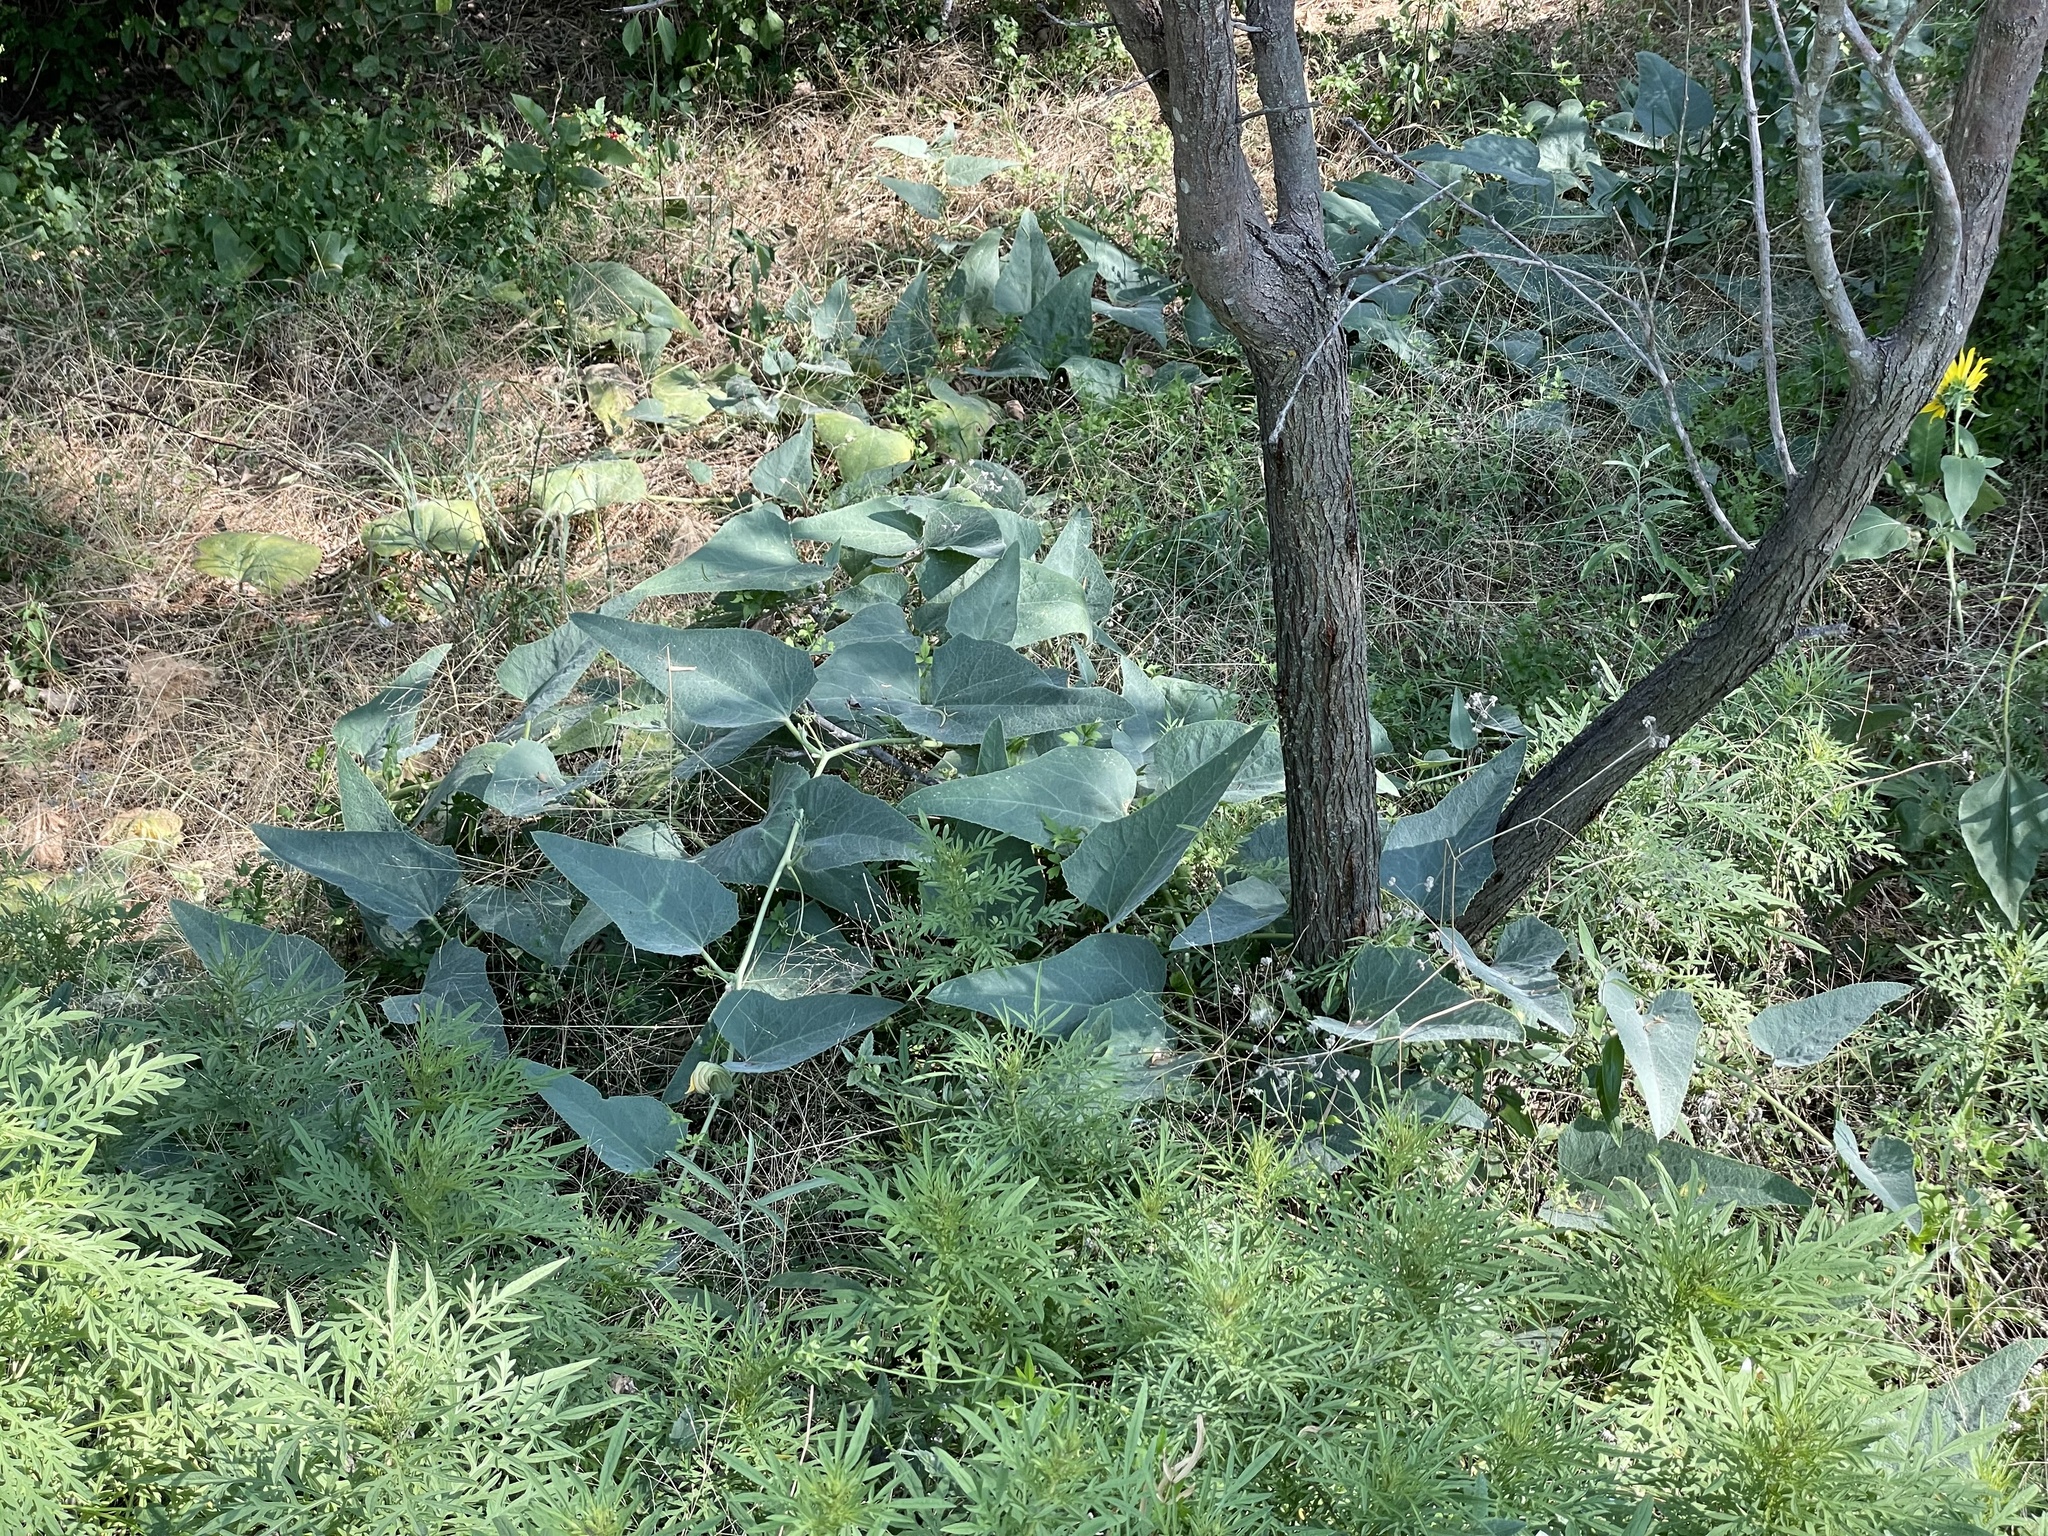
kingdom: Plantae
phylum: Tracheophyta
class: Magnoliopsida
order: Cucurbitales
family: Cucurbitaceae
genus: Cucurbita
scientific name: Cucurbita foetidissima
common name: Buffalo gourd
